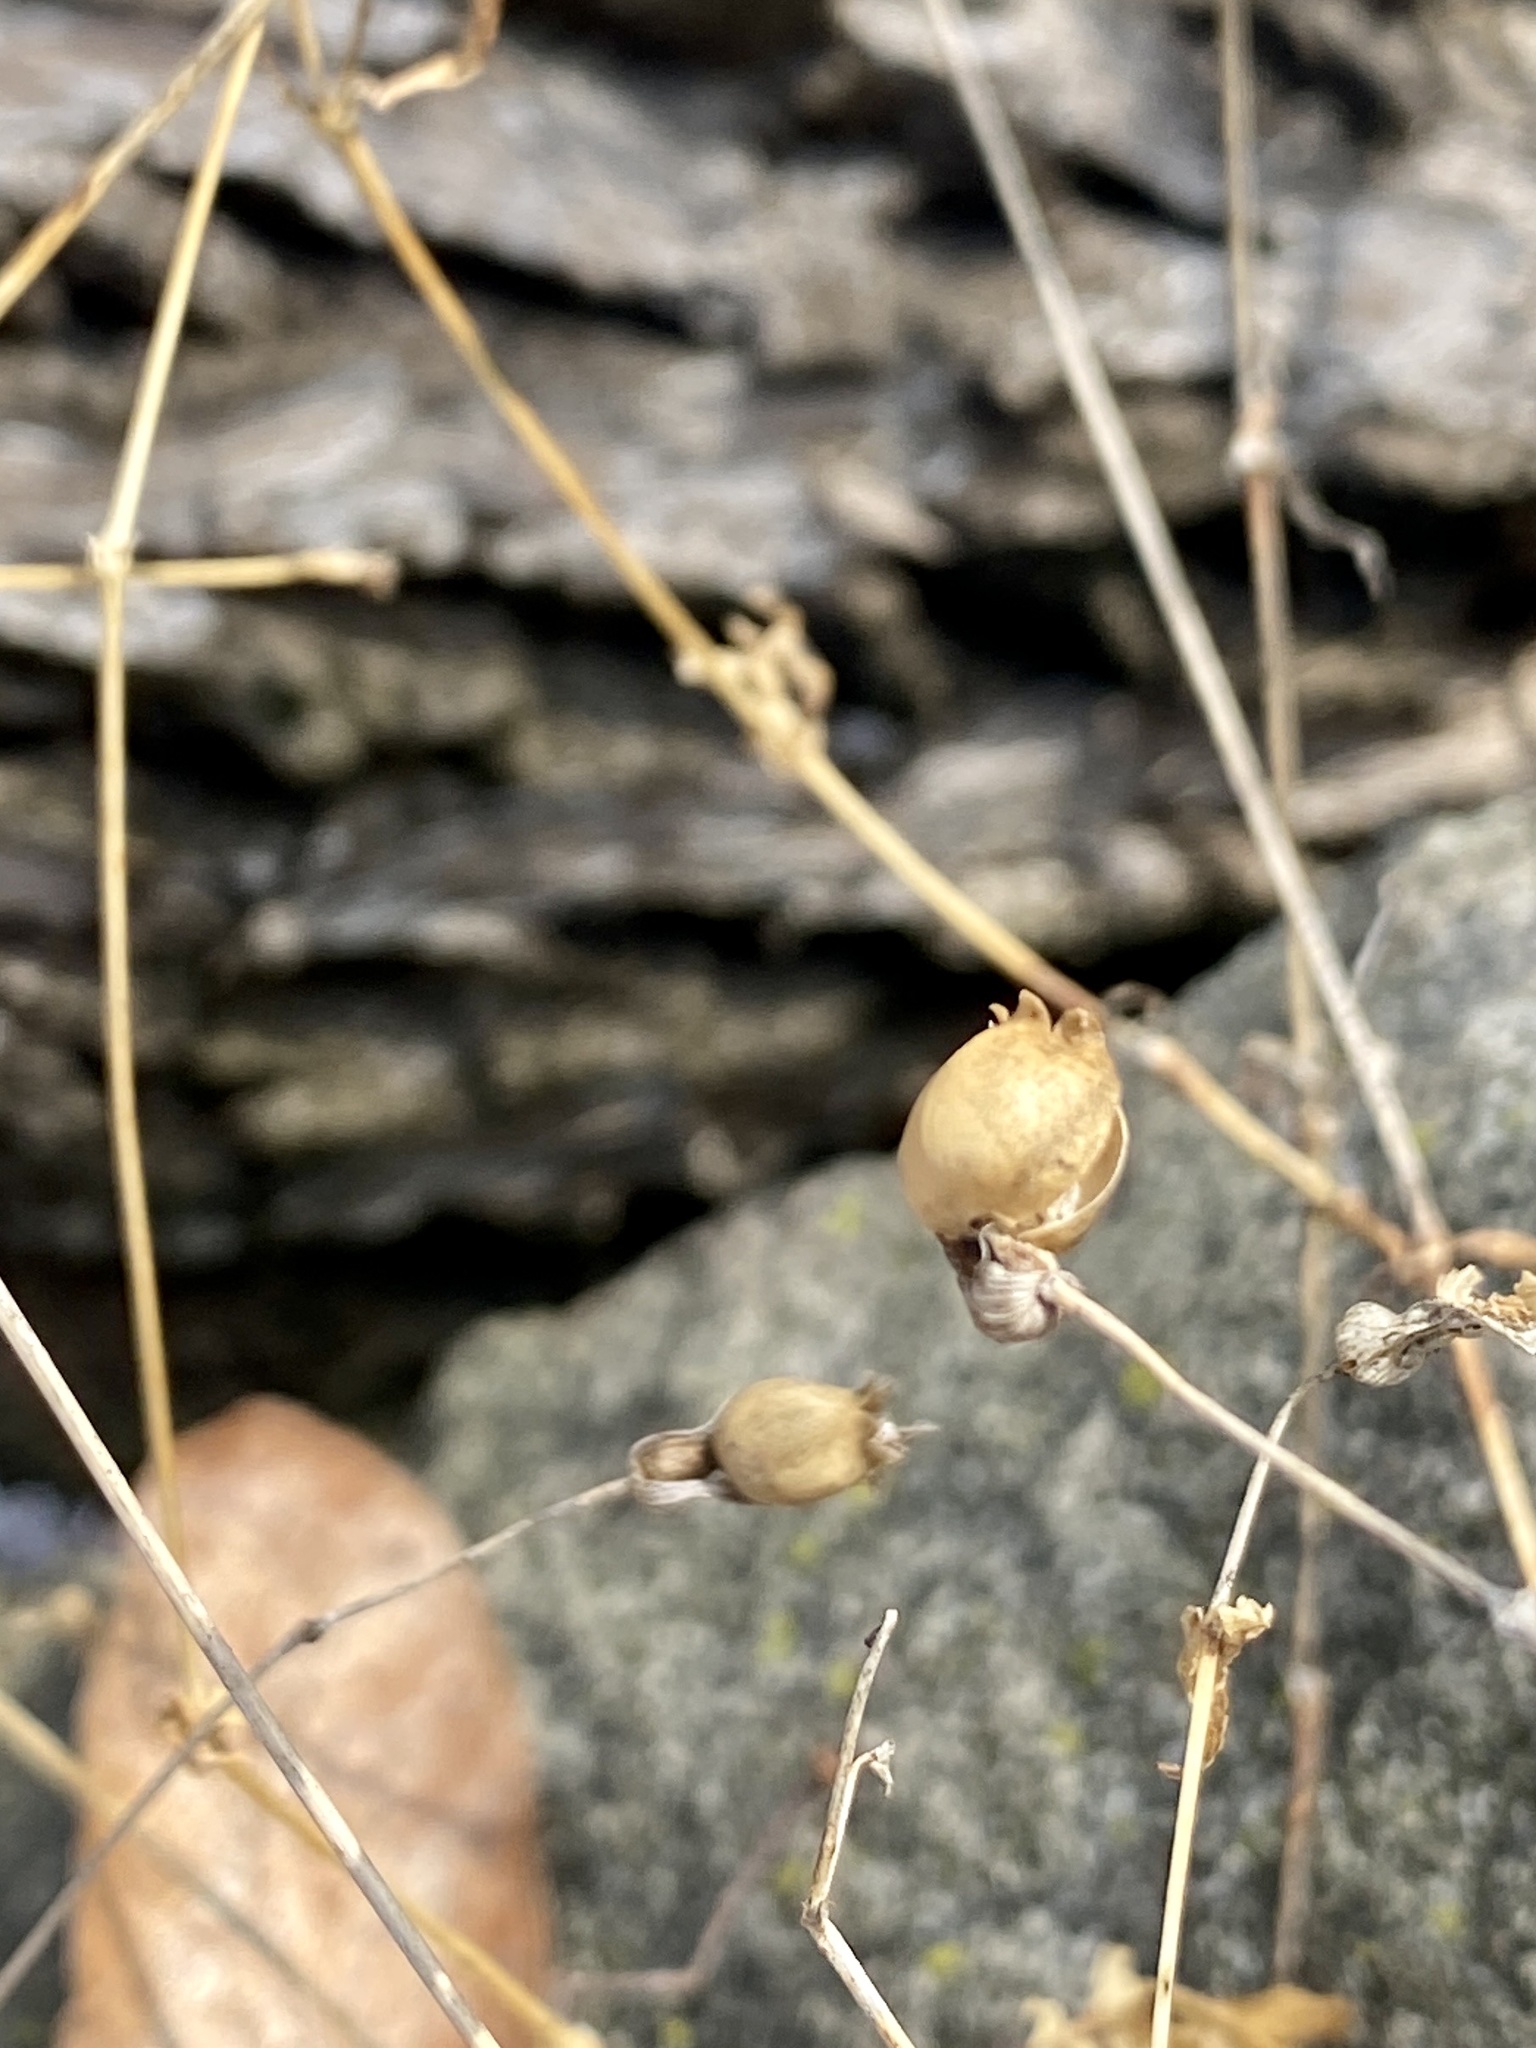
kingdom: Plantae
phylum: Tracheophyta
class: Magnoliopsida
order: Caryophyllales
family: Caryophyllaceae
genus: Silene
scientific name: Silene vulgaris
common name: Bladder campion
